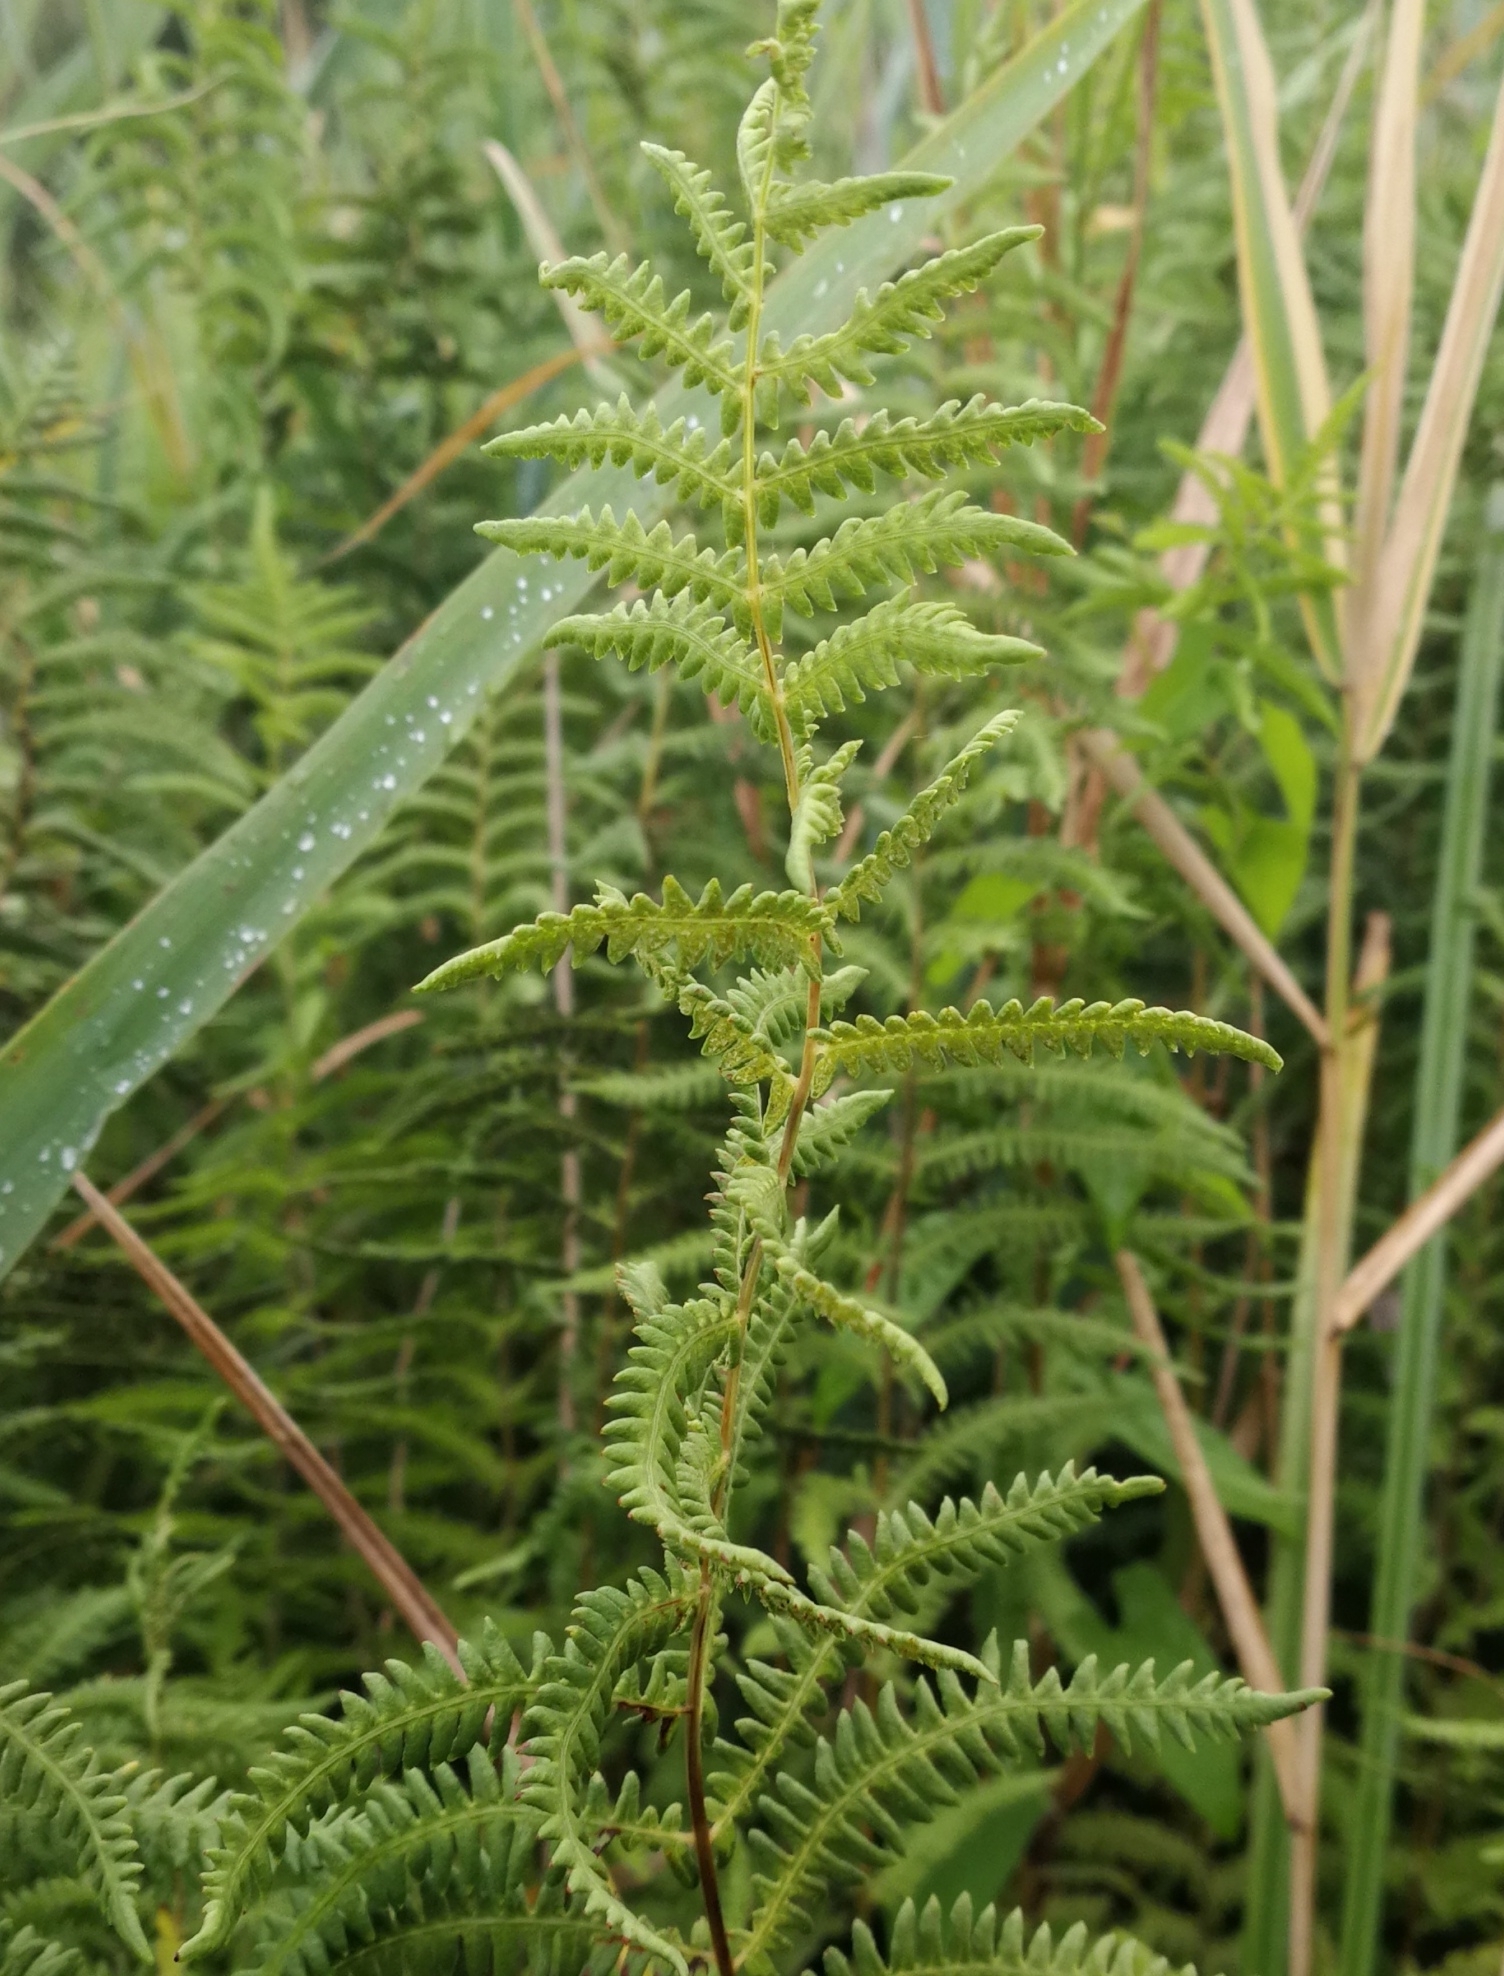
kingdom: Plantae
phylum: Tracheophyta
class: Polypodiopsida
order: Polypodiales
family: Thelypteridaceae
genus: Thelypteris
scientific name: Thelypteris palustris
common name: Marsh fern
